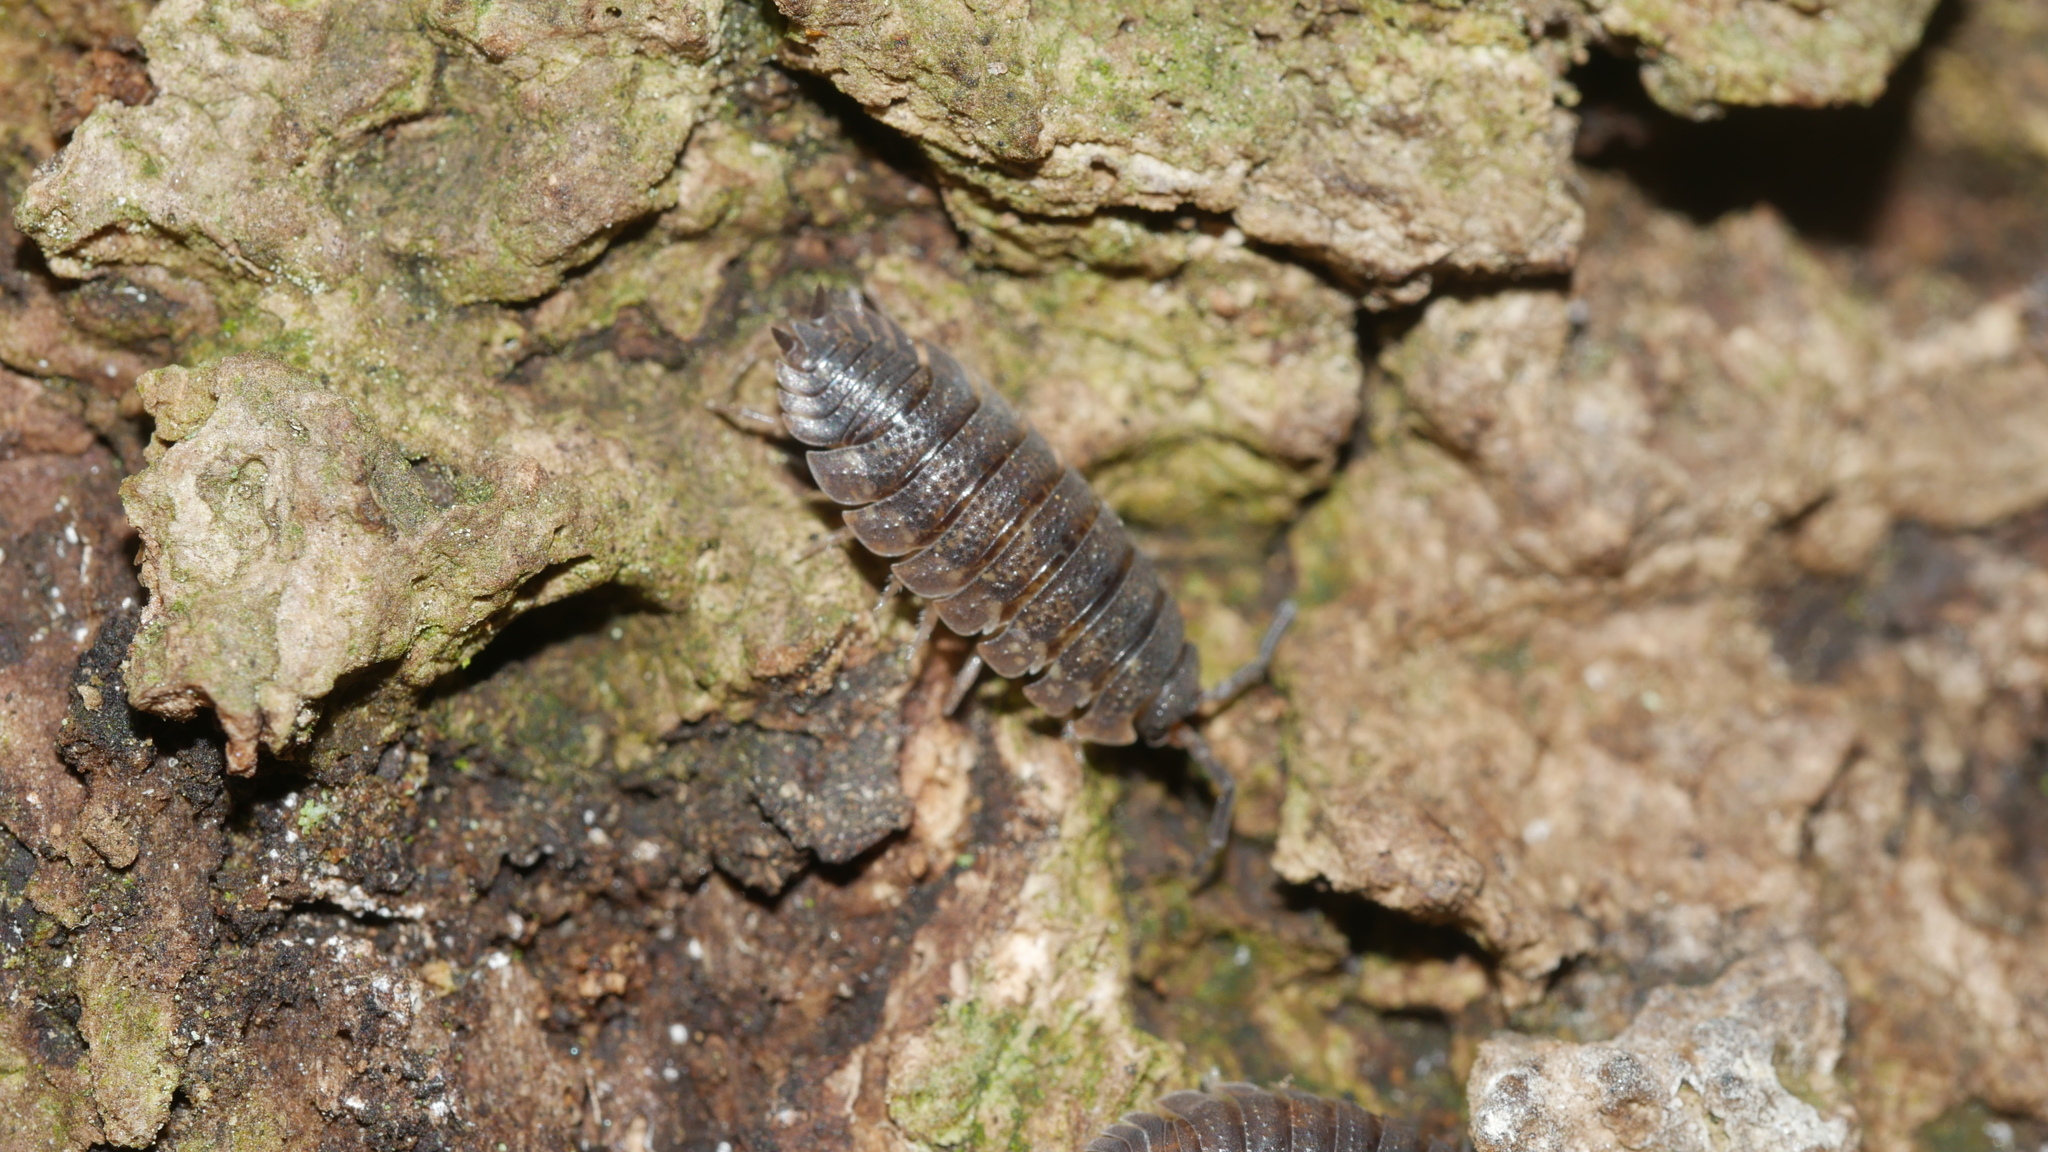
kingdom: Animalia
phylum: Arthropoda
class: Malacostraca
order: Isopoda
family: Porcellionidae
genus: Porcellio
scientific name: Porcellio scaber
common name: Common rough woodlouse
